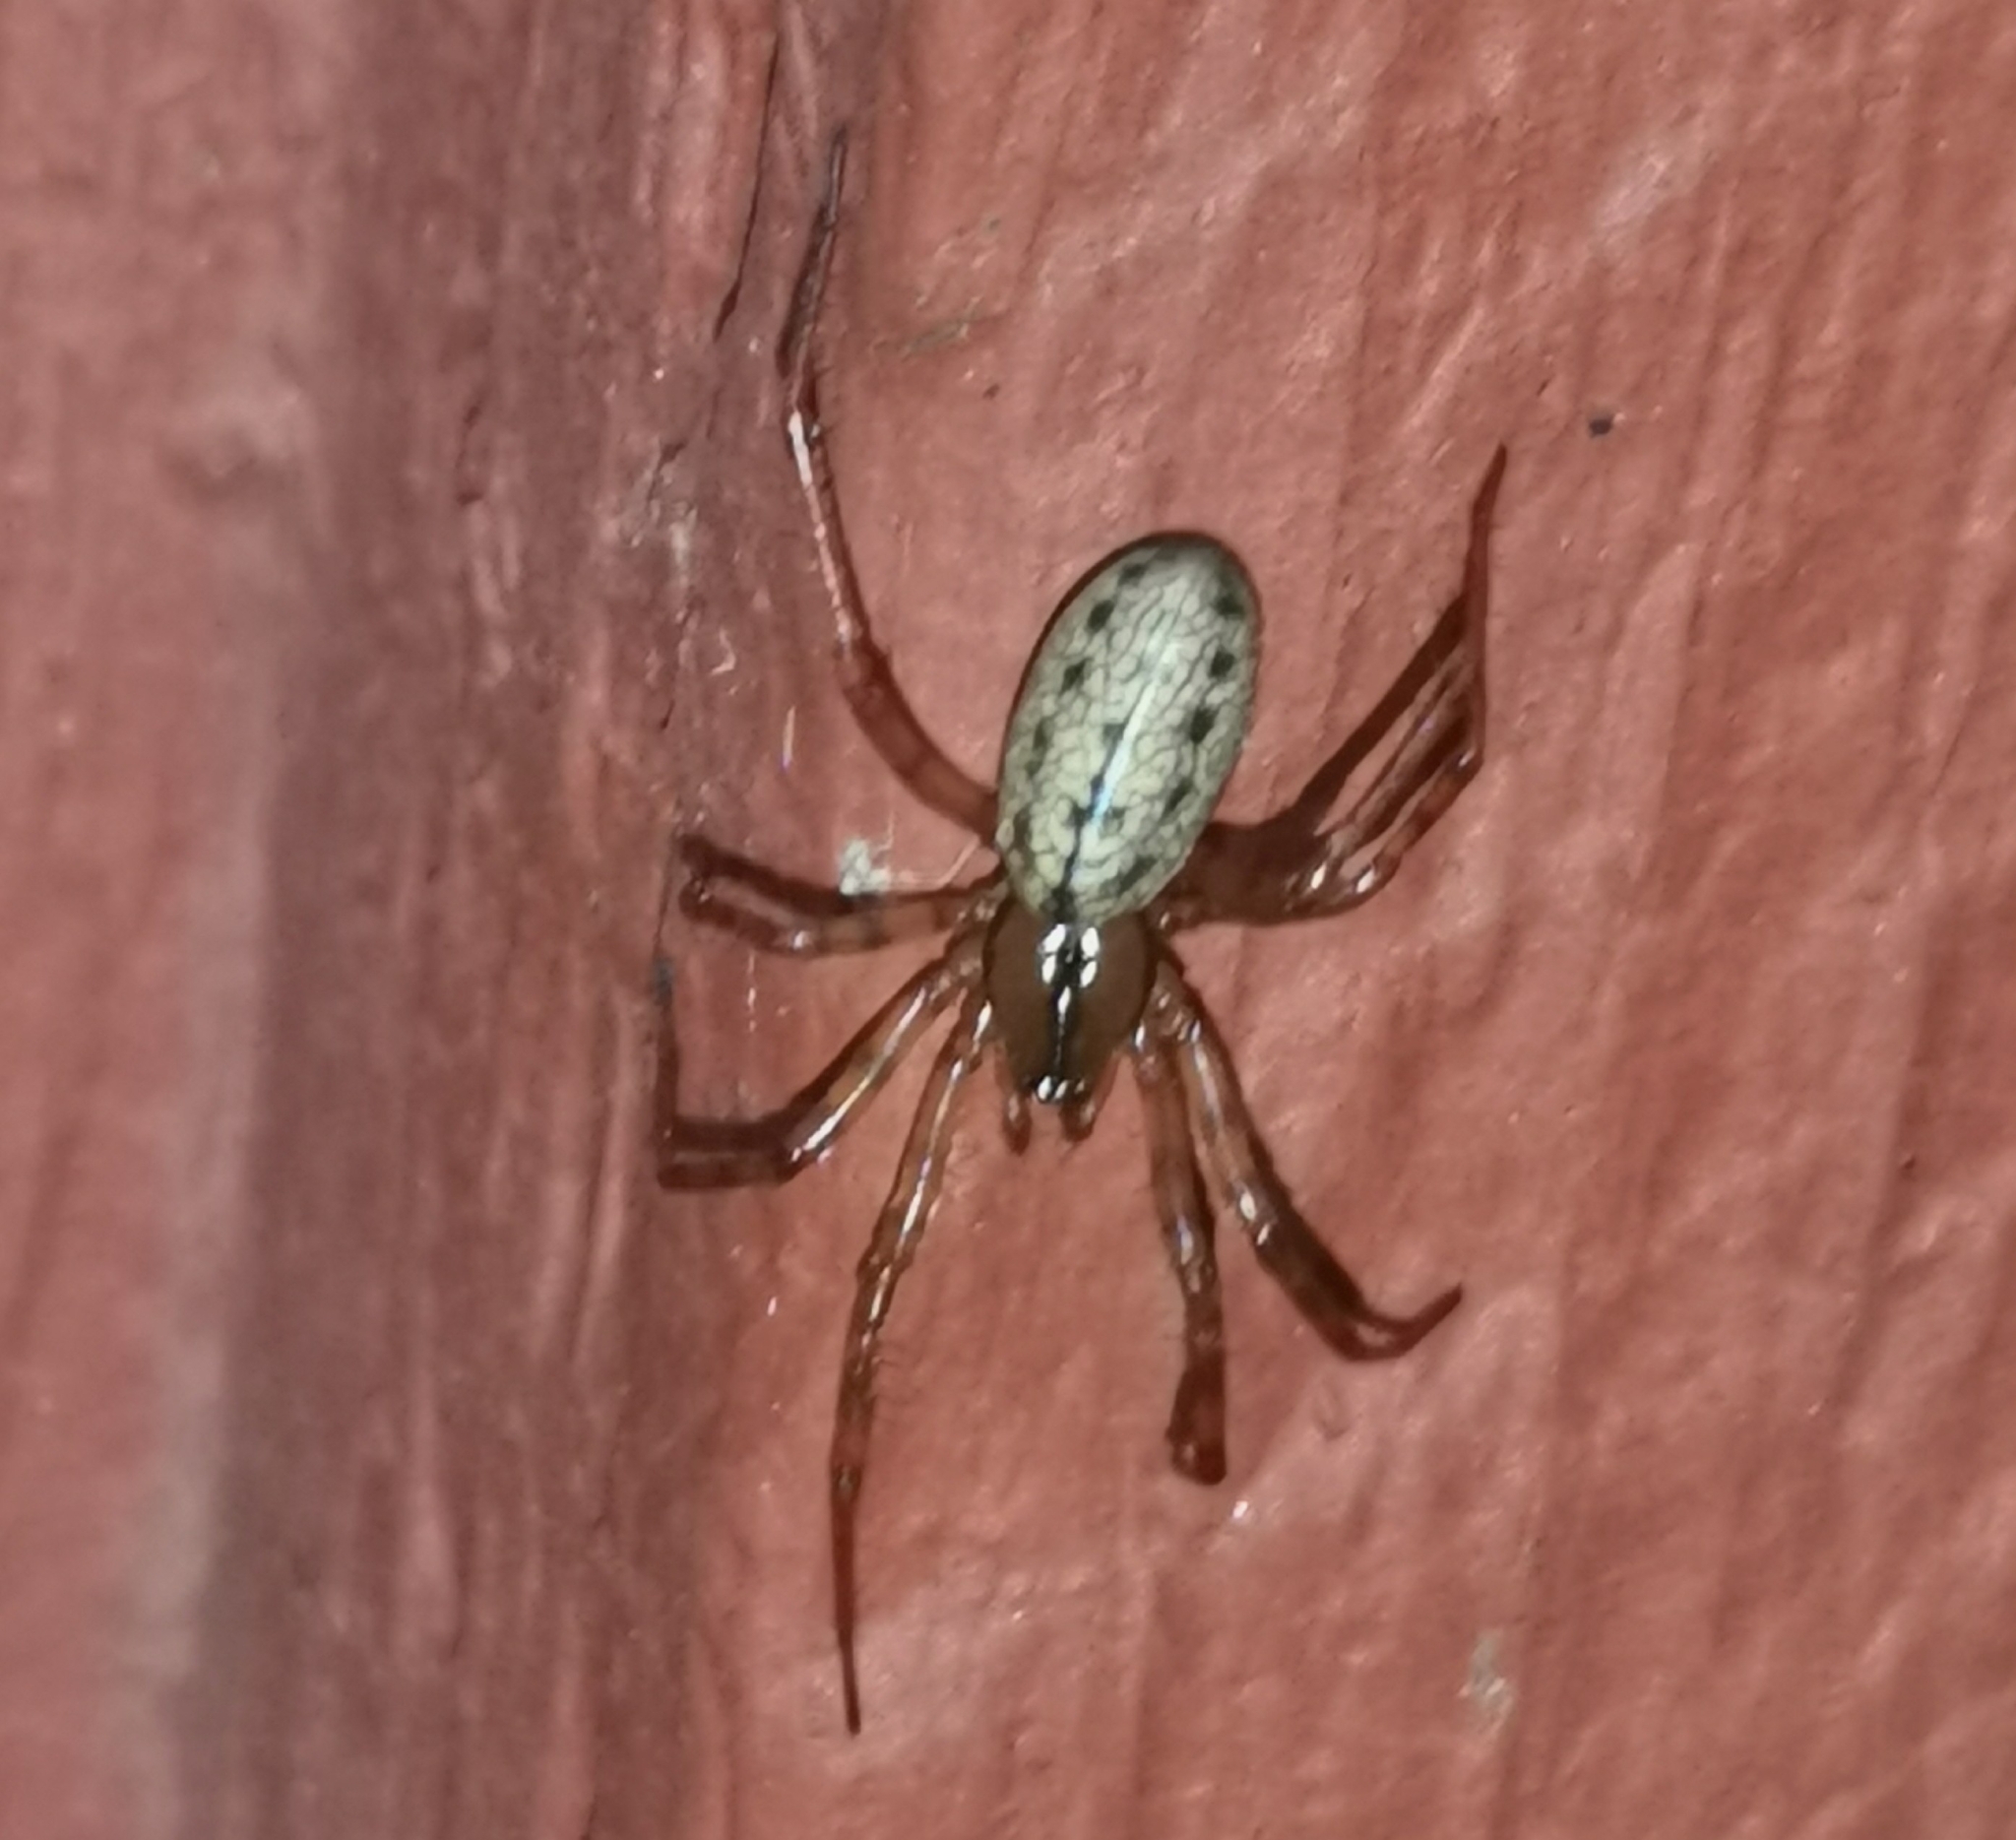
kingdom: Animalia
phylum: Arthropoda
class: Arachnida
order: Araneae
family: Linyphiidae
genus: Stemonyphantes
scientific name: Stemonyphantes lineatus
